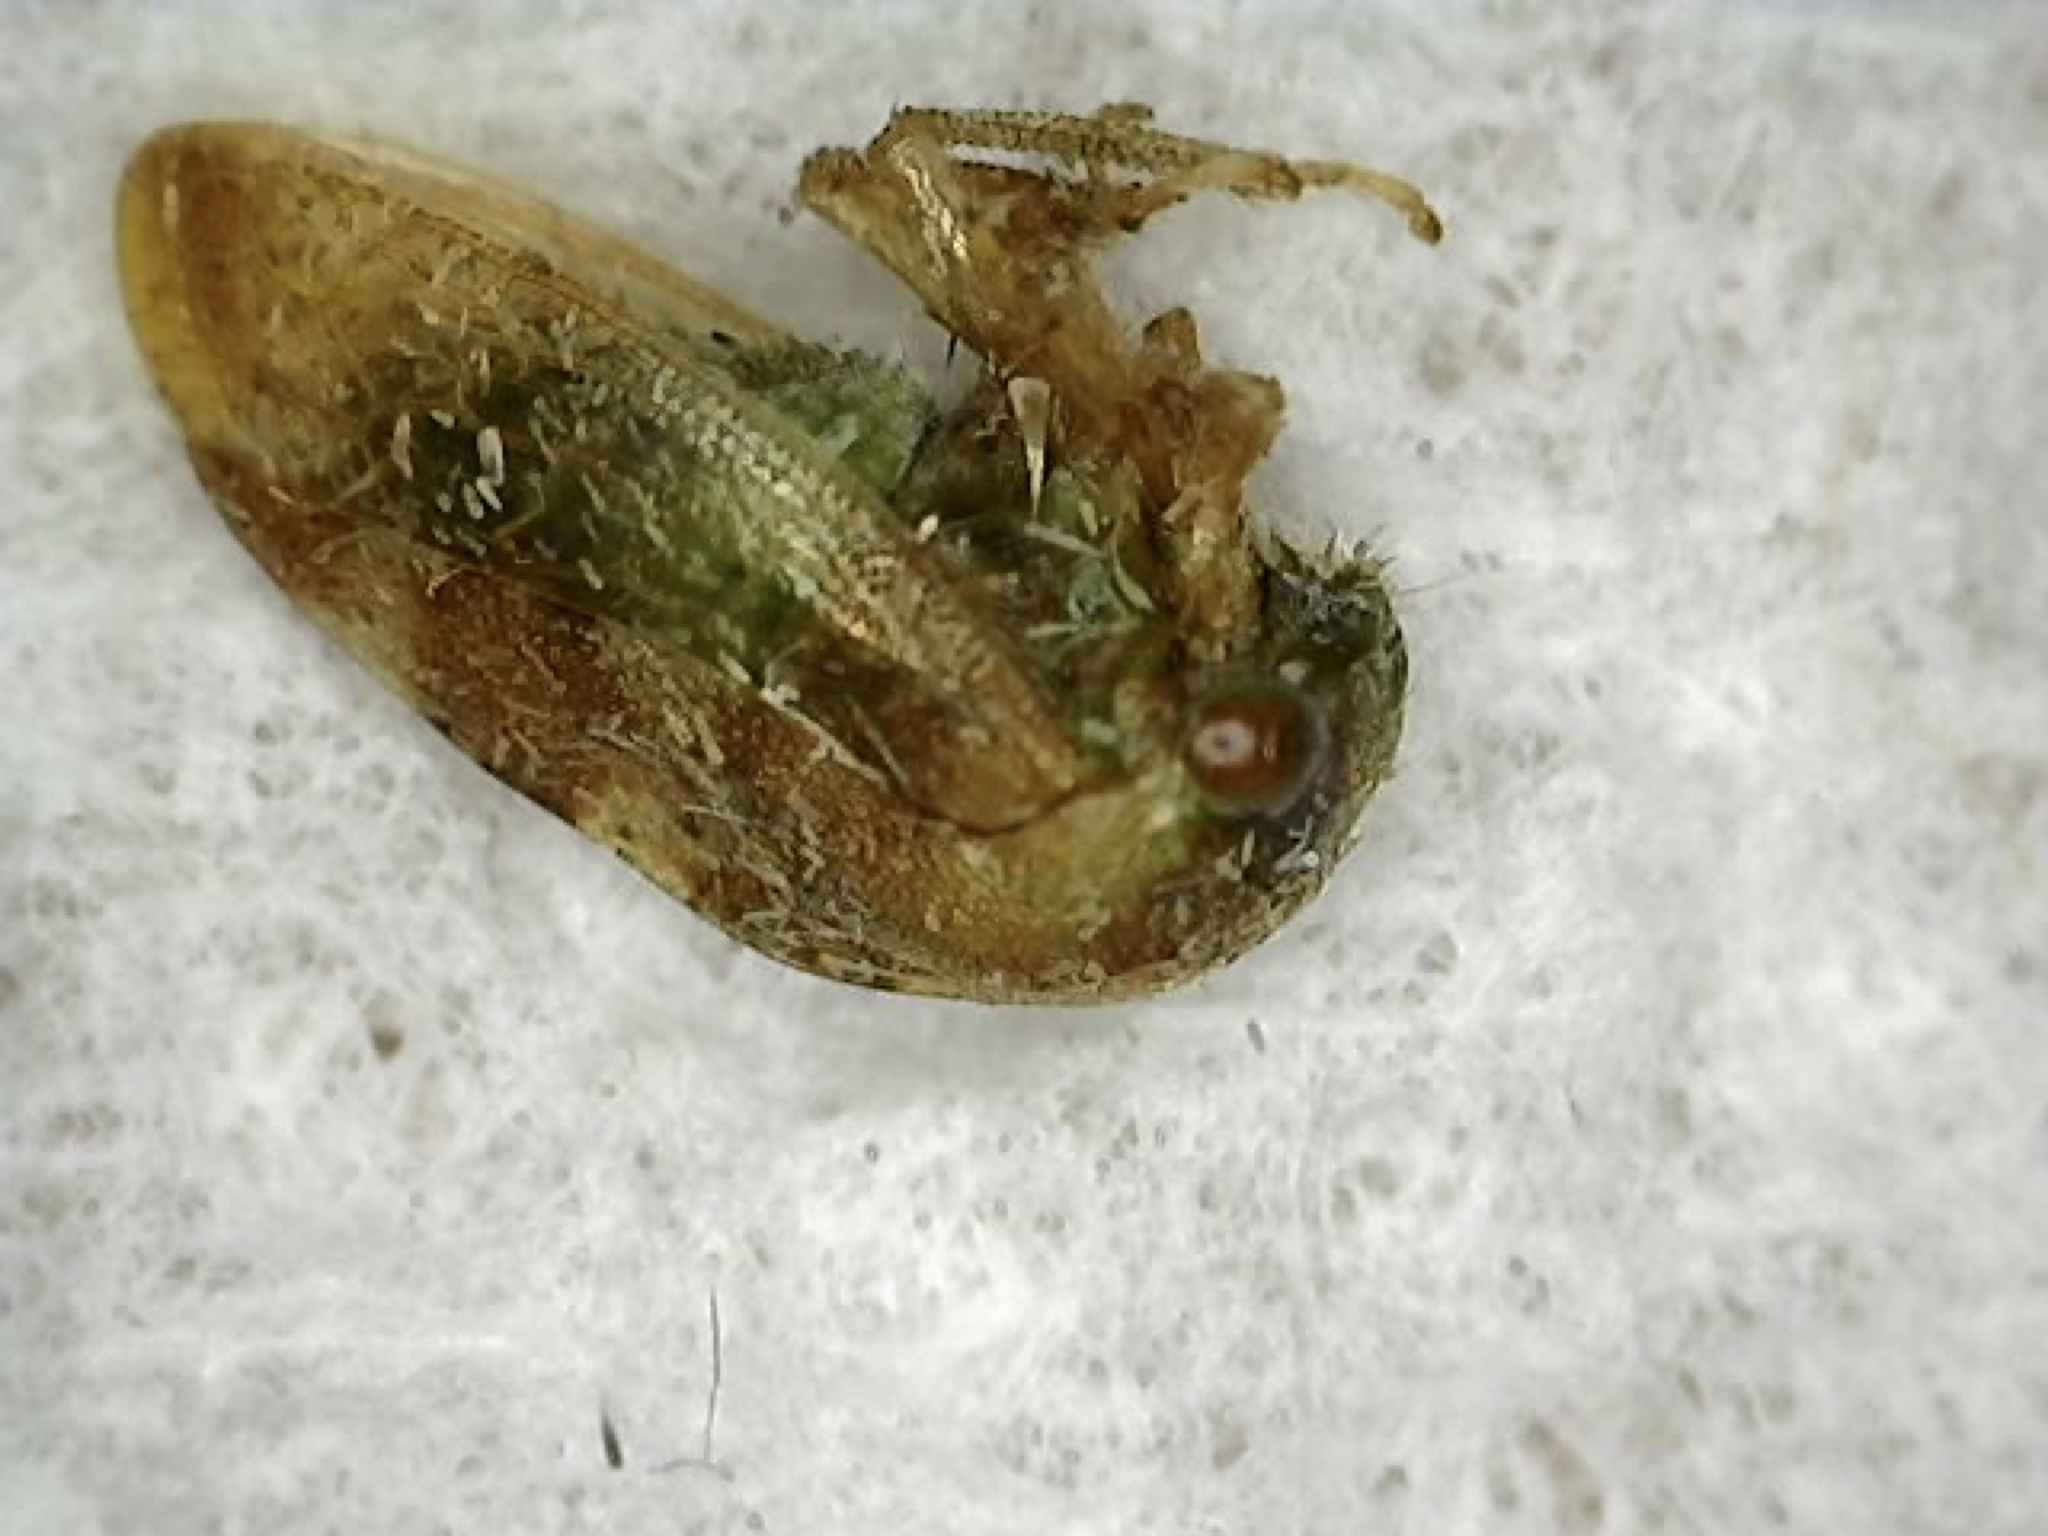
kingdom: Animalia
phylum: Arthropoda
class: Insecta
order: Hemiptera
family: Membracidae
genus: Cyrtolobus
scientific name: Cyrtolobus togatus
